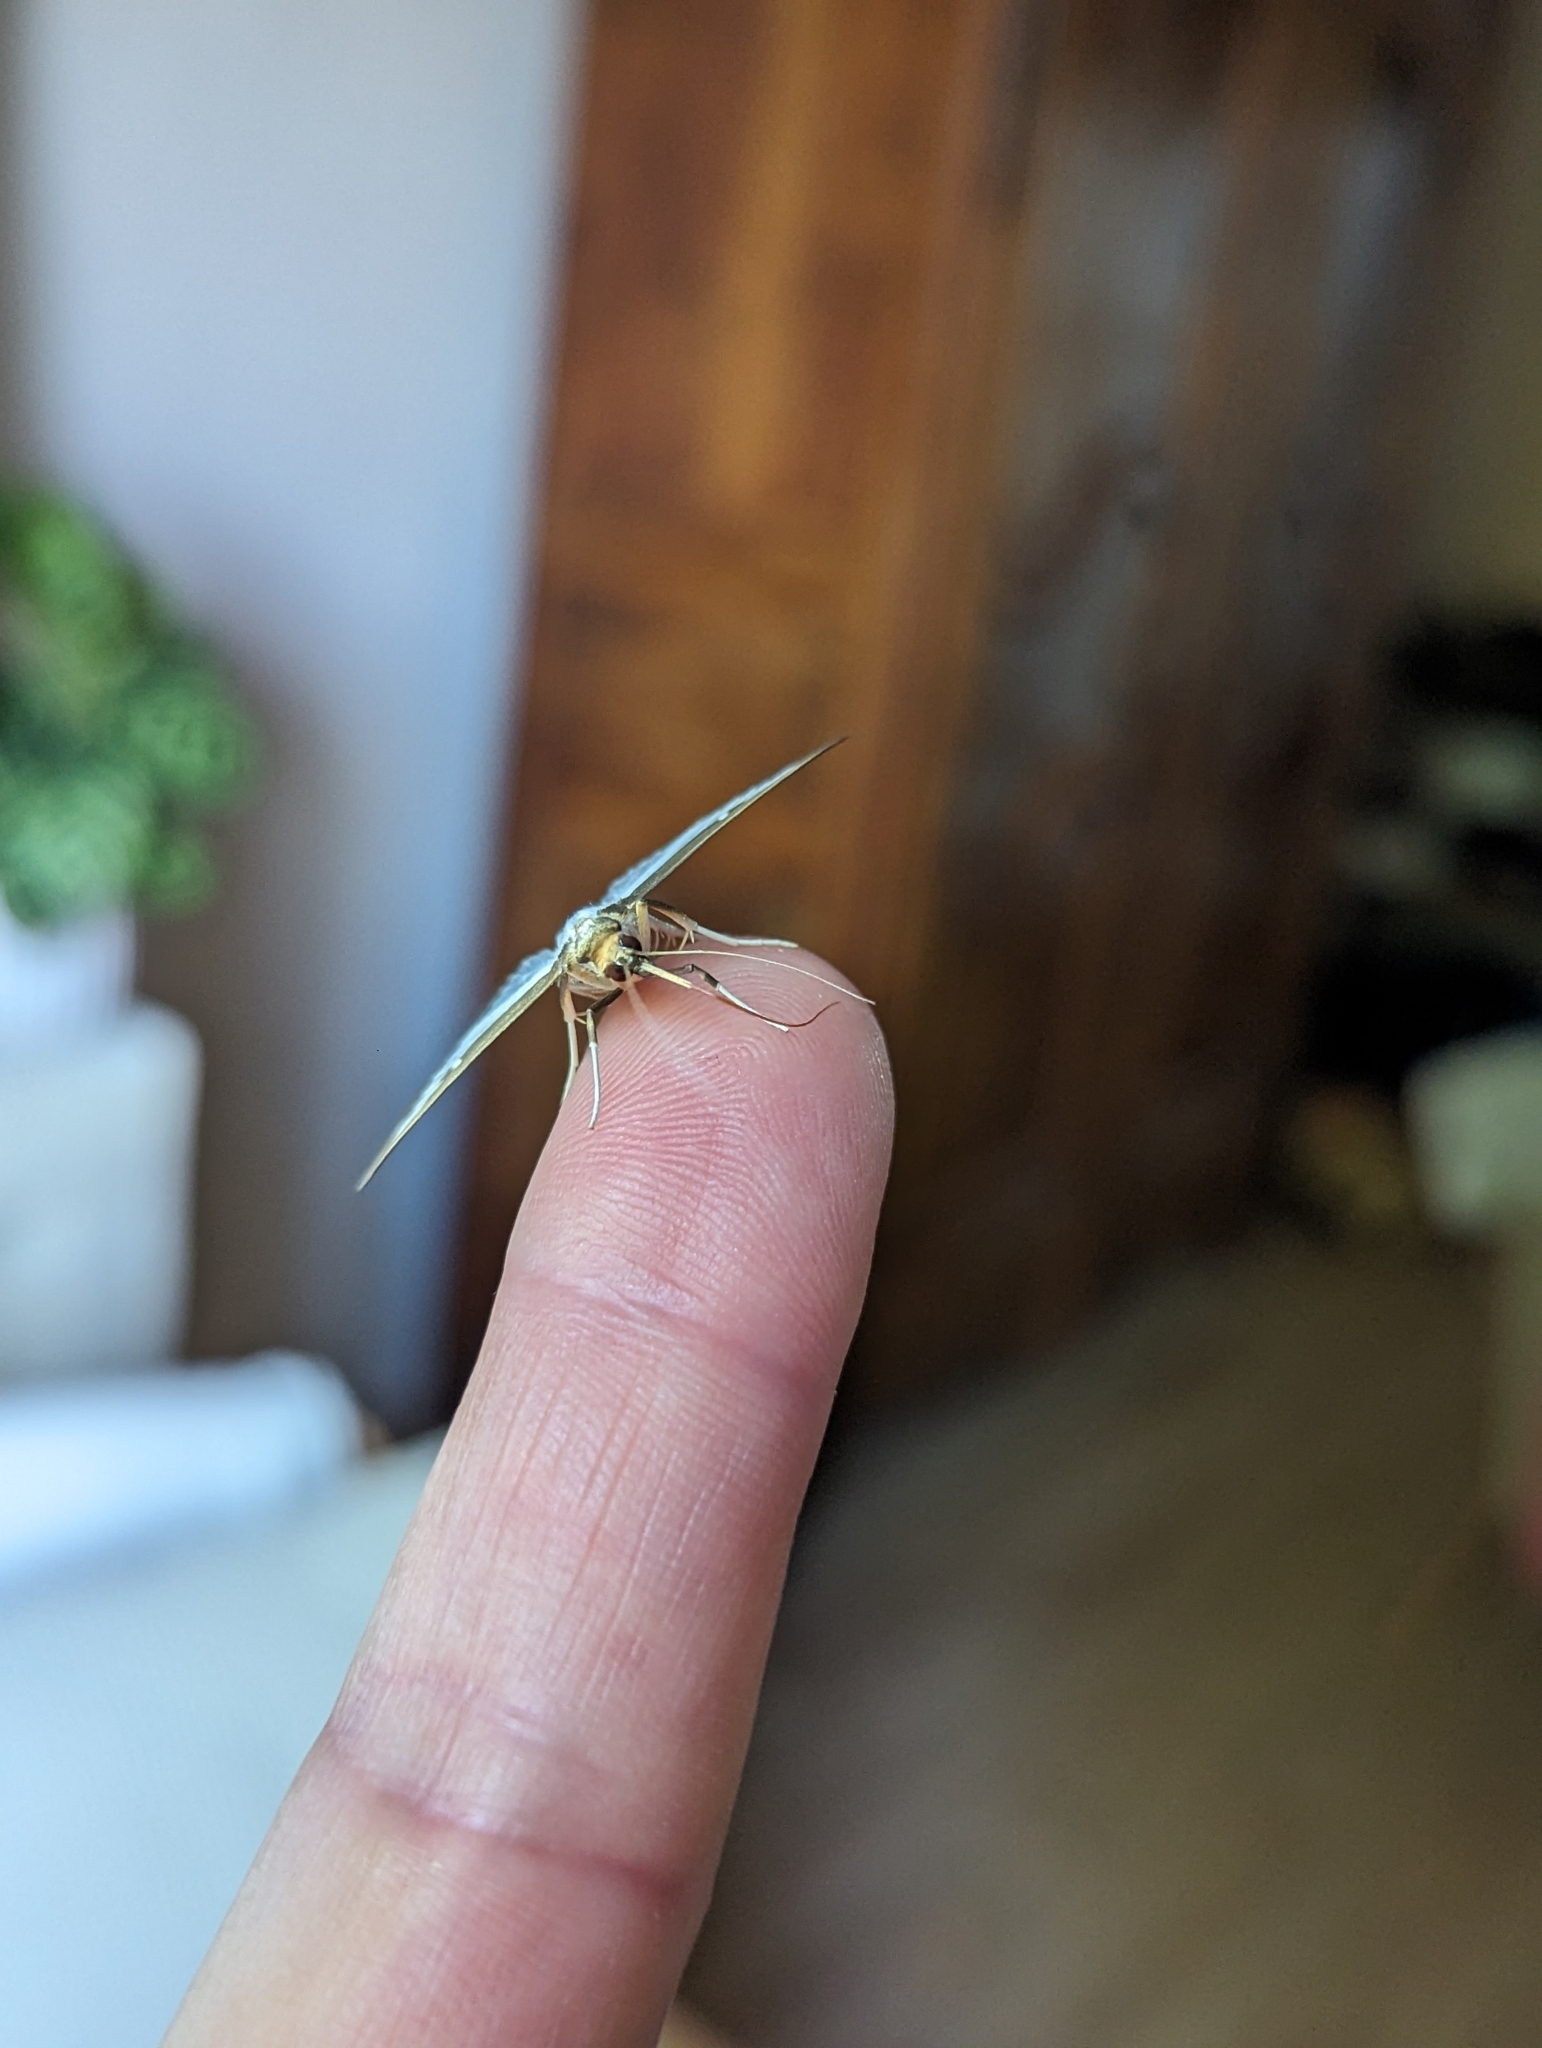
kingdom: Animalia
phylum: Arthropoda
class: Insecta
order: Lepidoptera
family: Crambidae
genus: Cydalima
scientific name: Cydalima perspectalis
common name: Box tree moth
